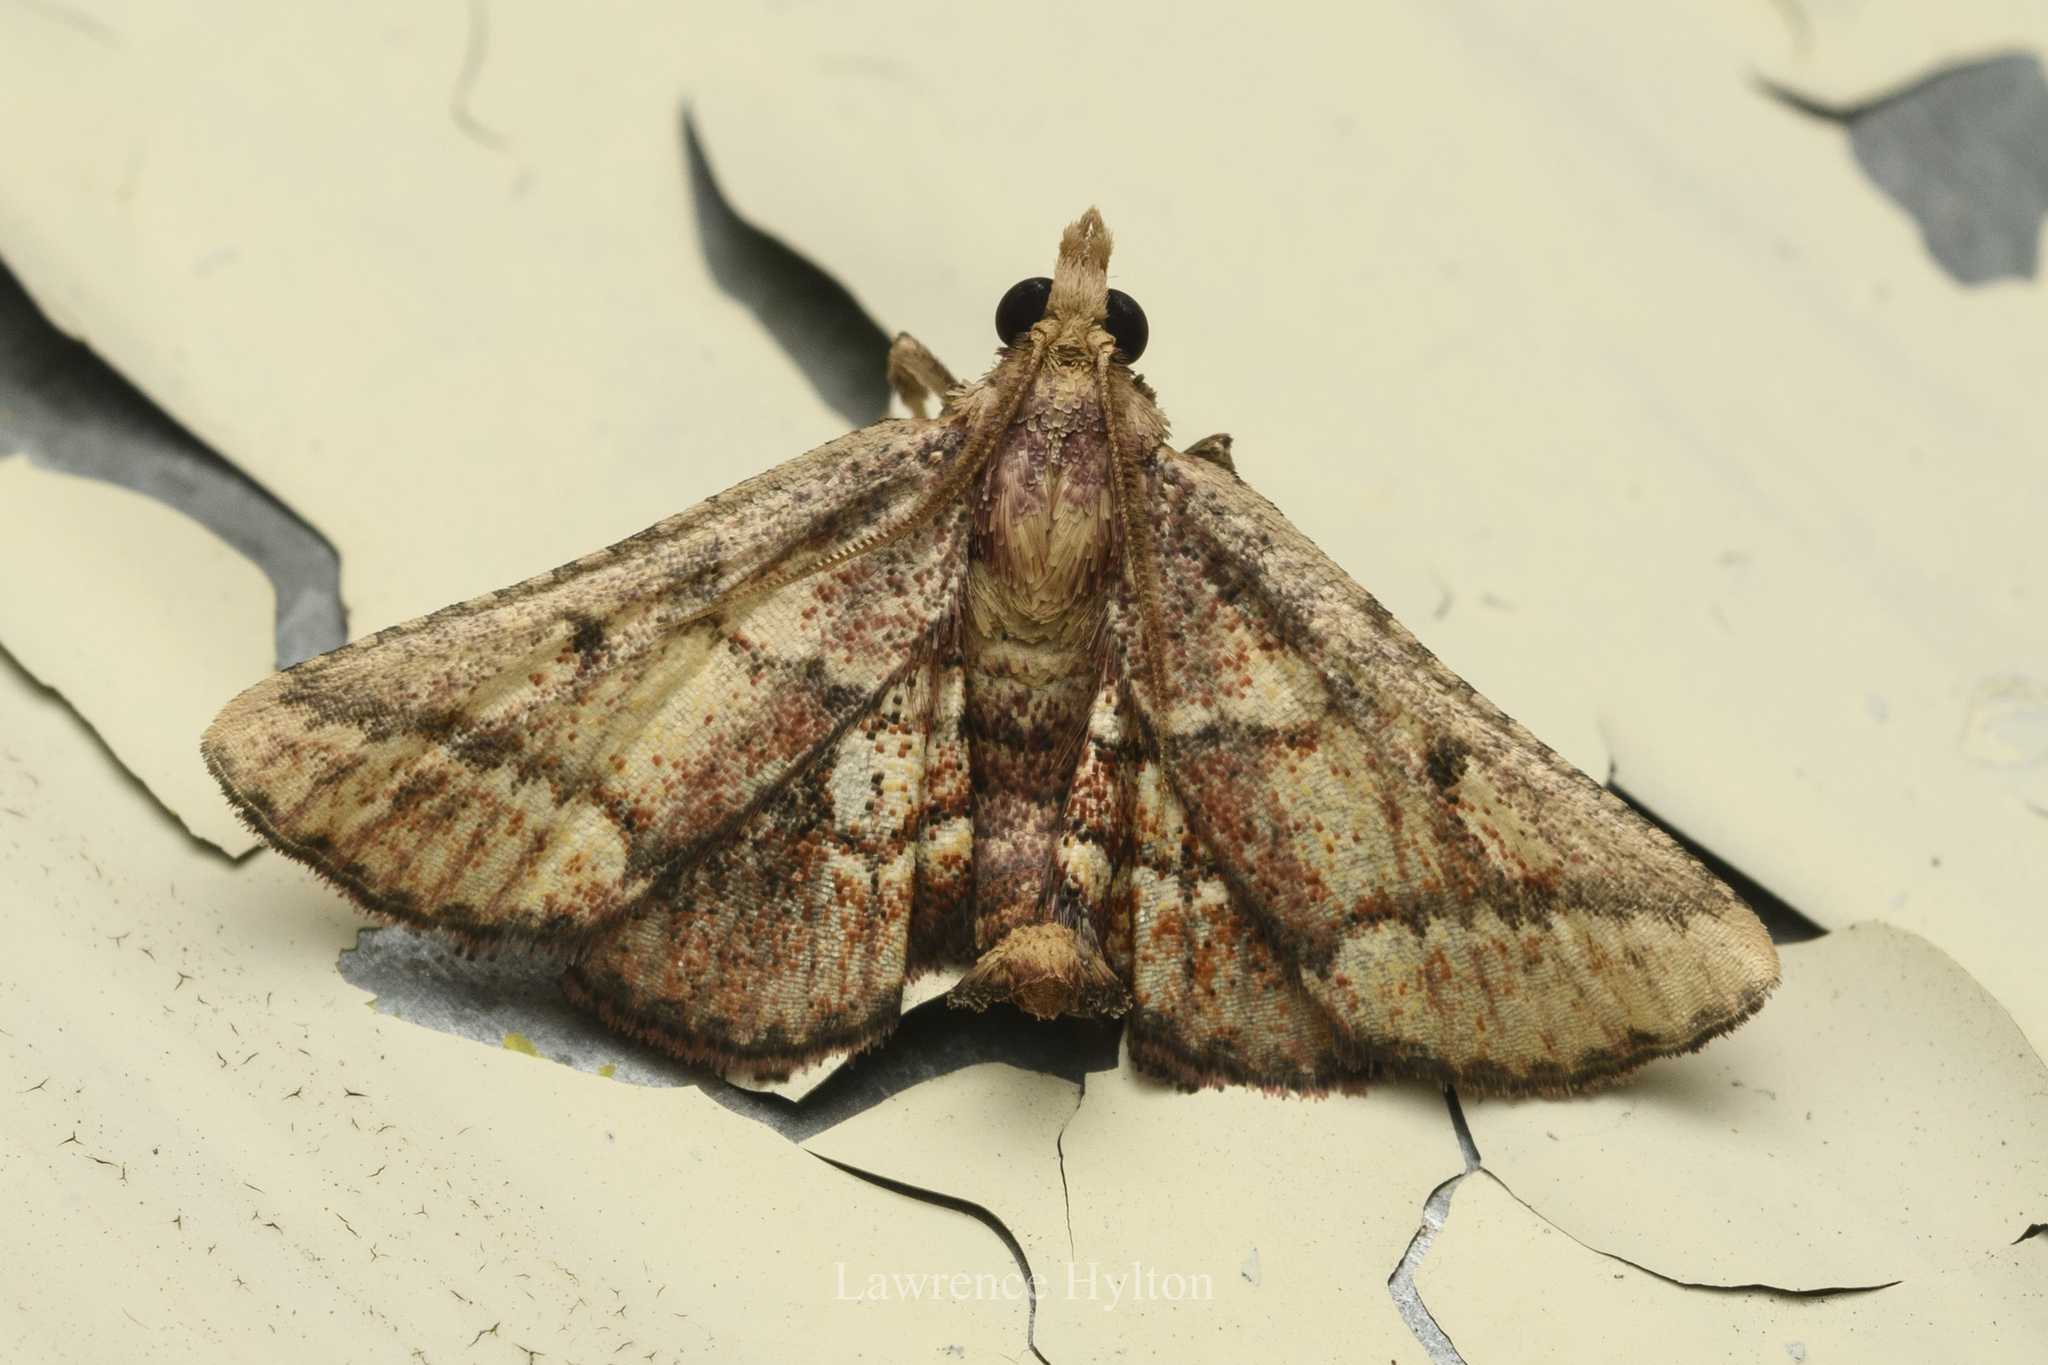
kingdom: Animalia
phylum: Arthropoda
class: Insecta
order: Lepidoptera
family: Pyralidae
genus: Zitha
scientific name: Zitha
